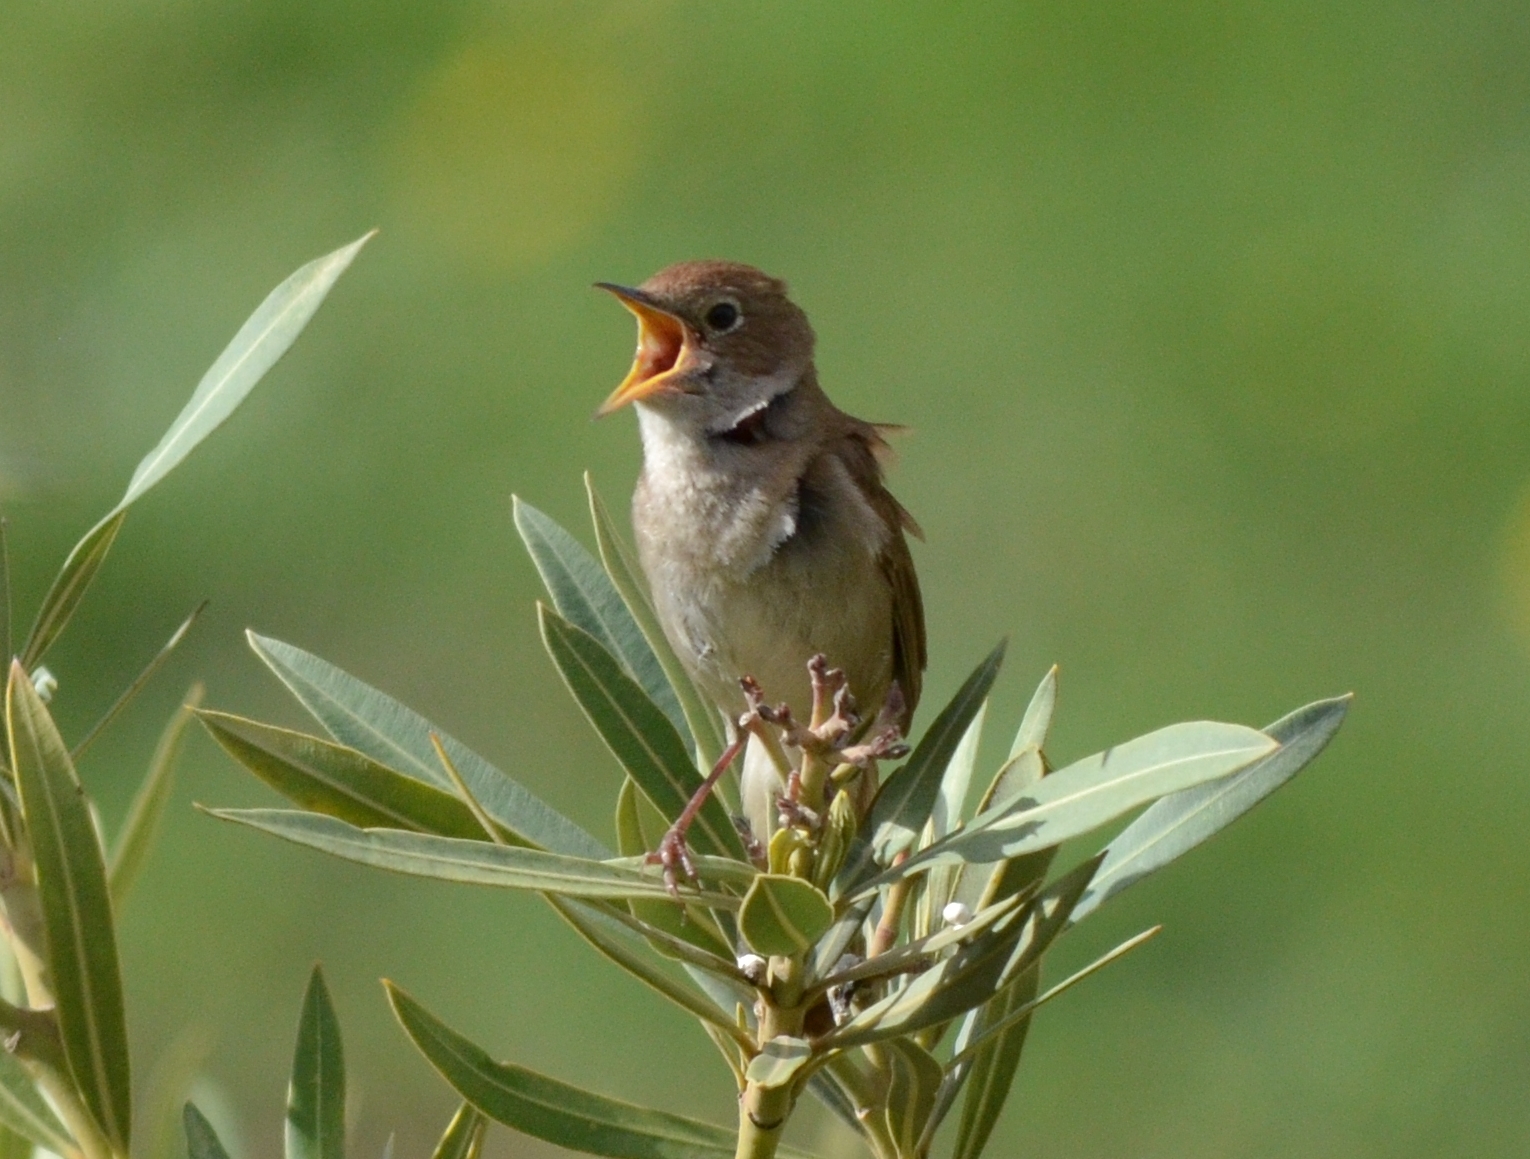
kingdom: Animalia
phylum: Chordata
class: Aves
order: Passeriformes
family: Muscicapidae
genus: Luscinia
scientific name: Luscinia megarhynchos
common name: Common nightingale
